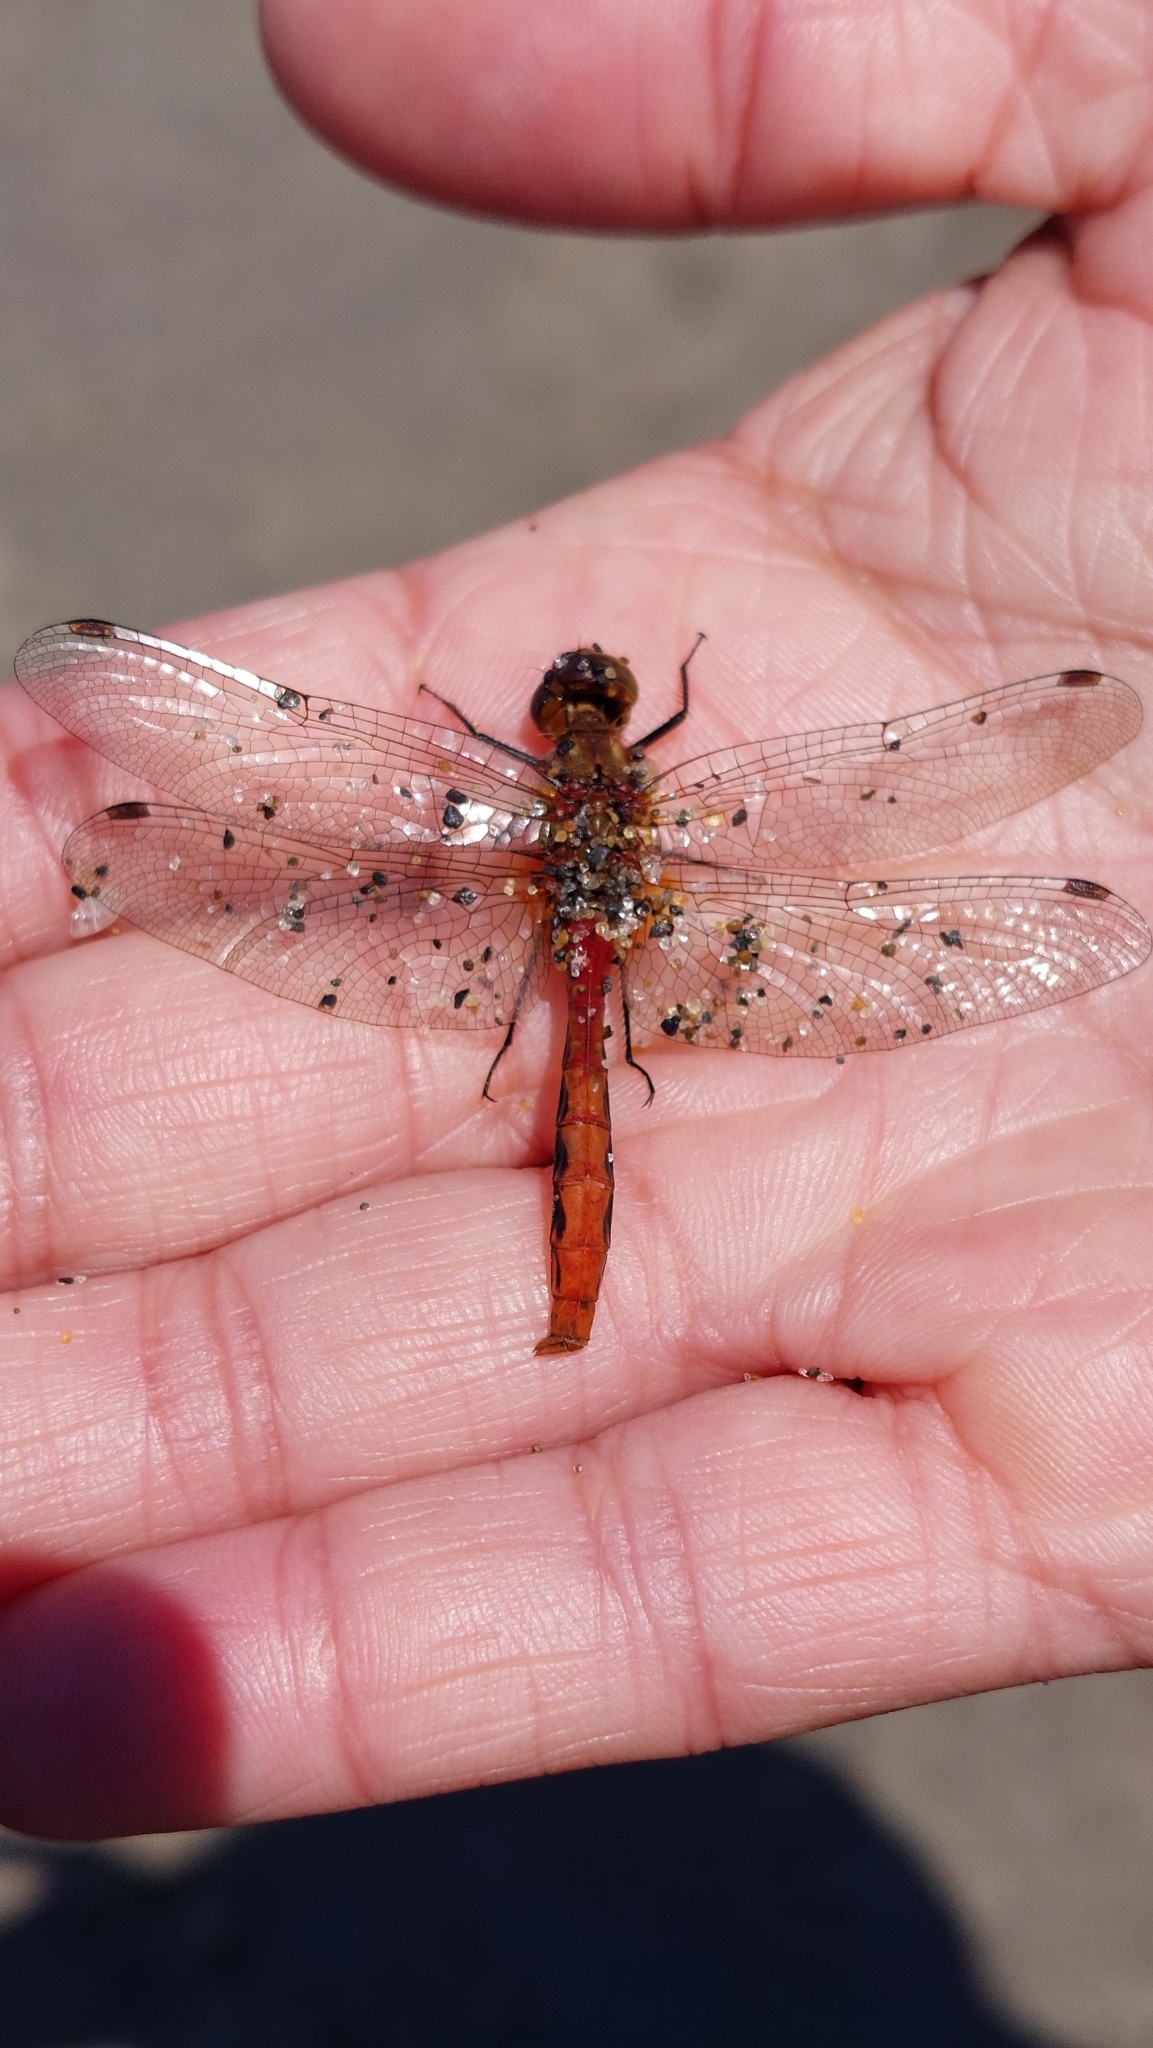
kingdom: Animalia
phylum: Arthropoda
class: Insecta
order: Odonata
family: Libellulidae
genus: Sympetrum
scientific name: Sympetrum pallipes
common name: Striped meadowhawk
